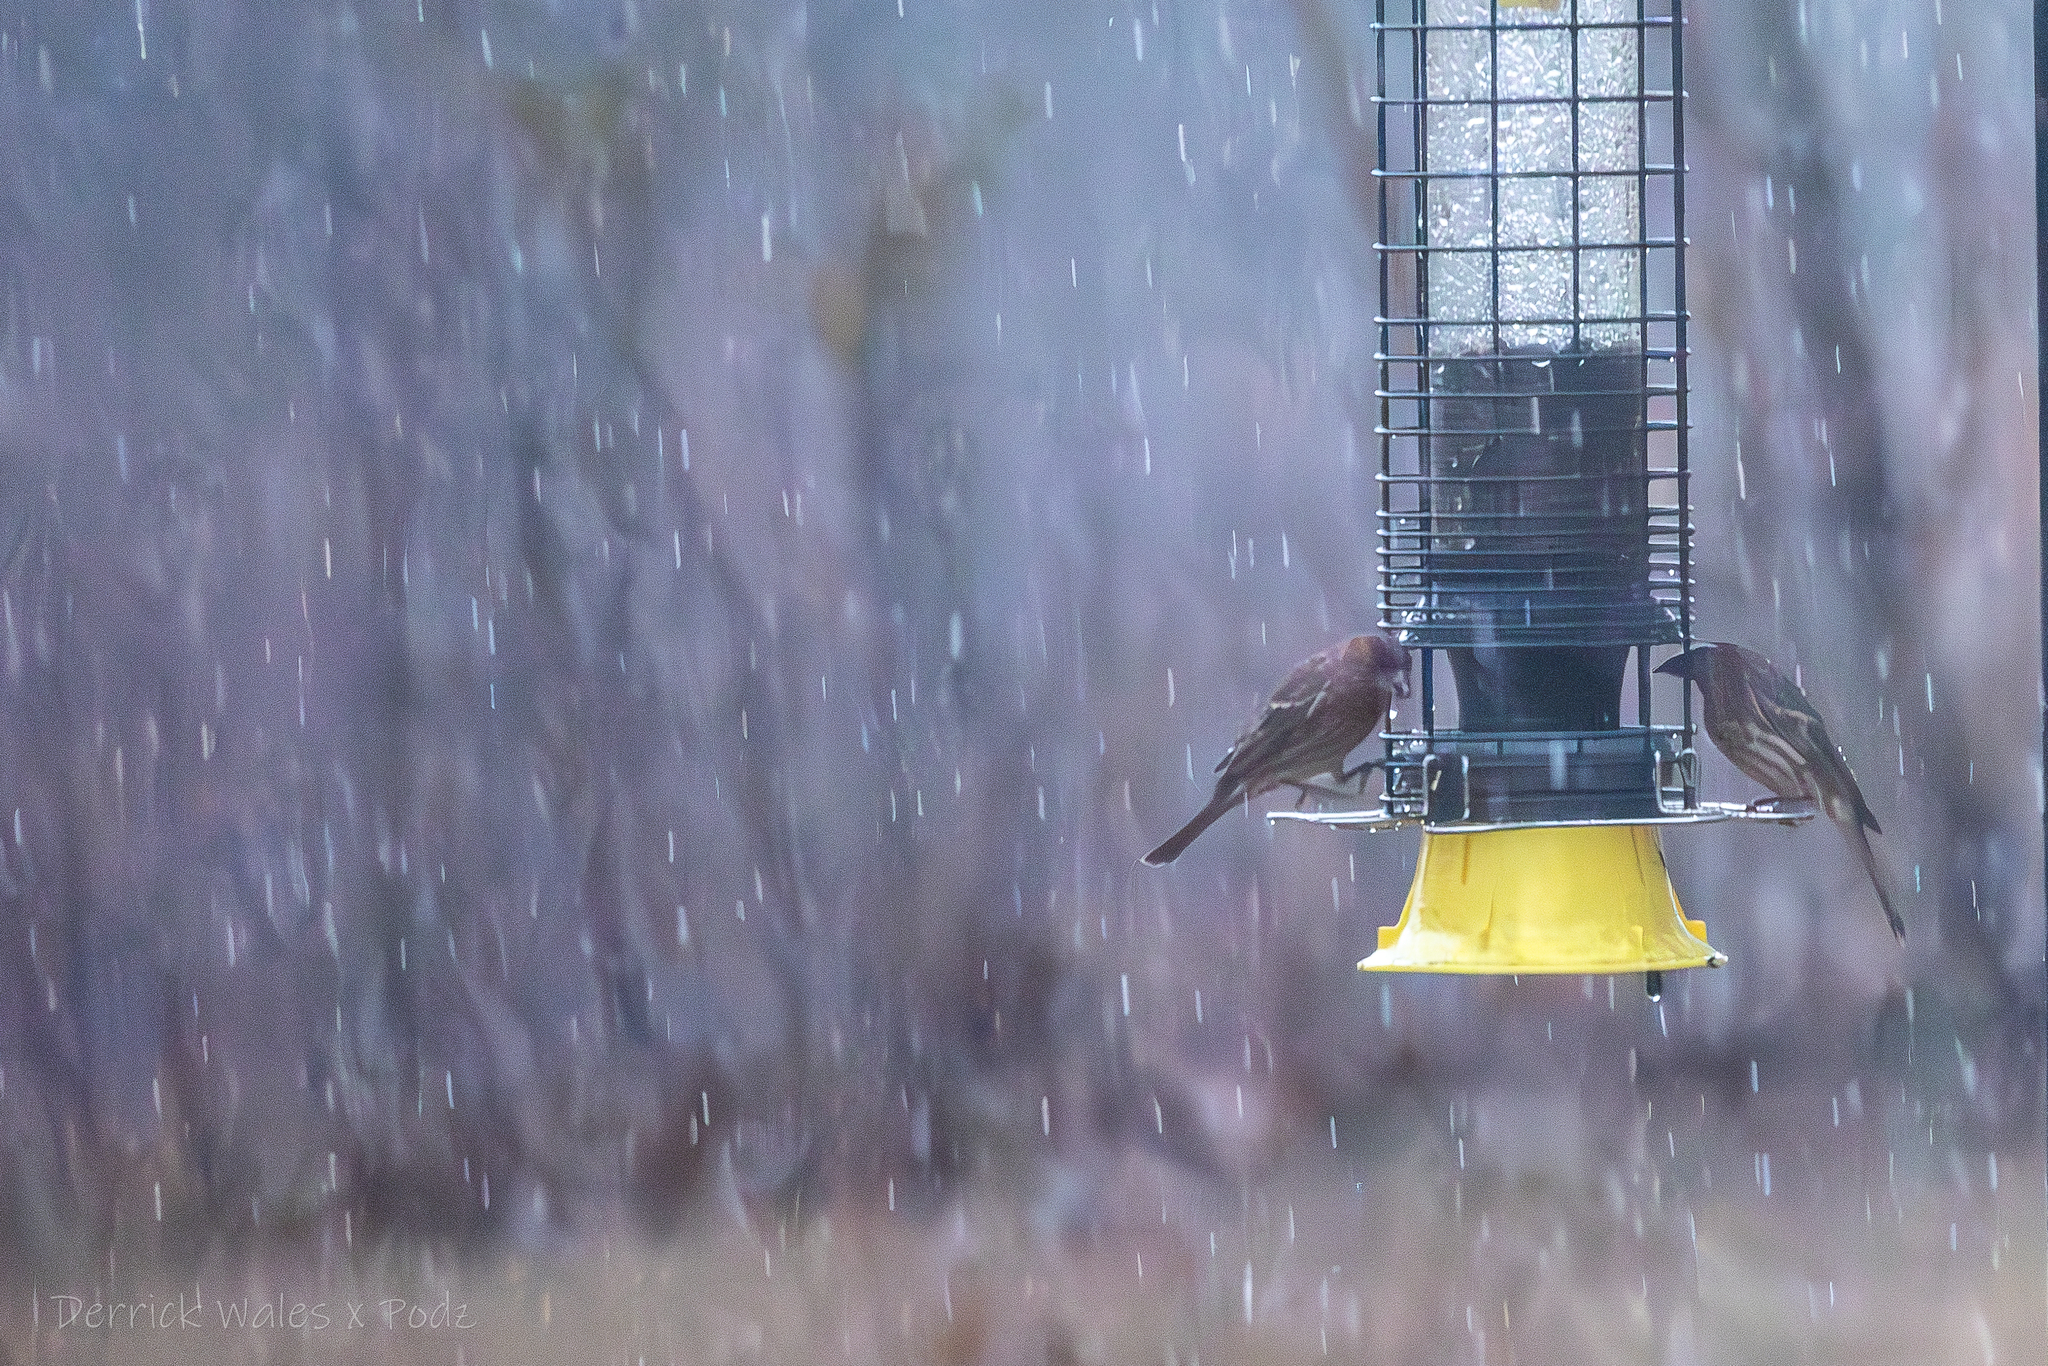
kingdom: Animalia
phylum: Chordata
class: Aves
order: Passeriformes
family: Fringillidae
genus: Haemorhous
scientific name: Haemorhous mexicanus
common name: House finch
